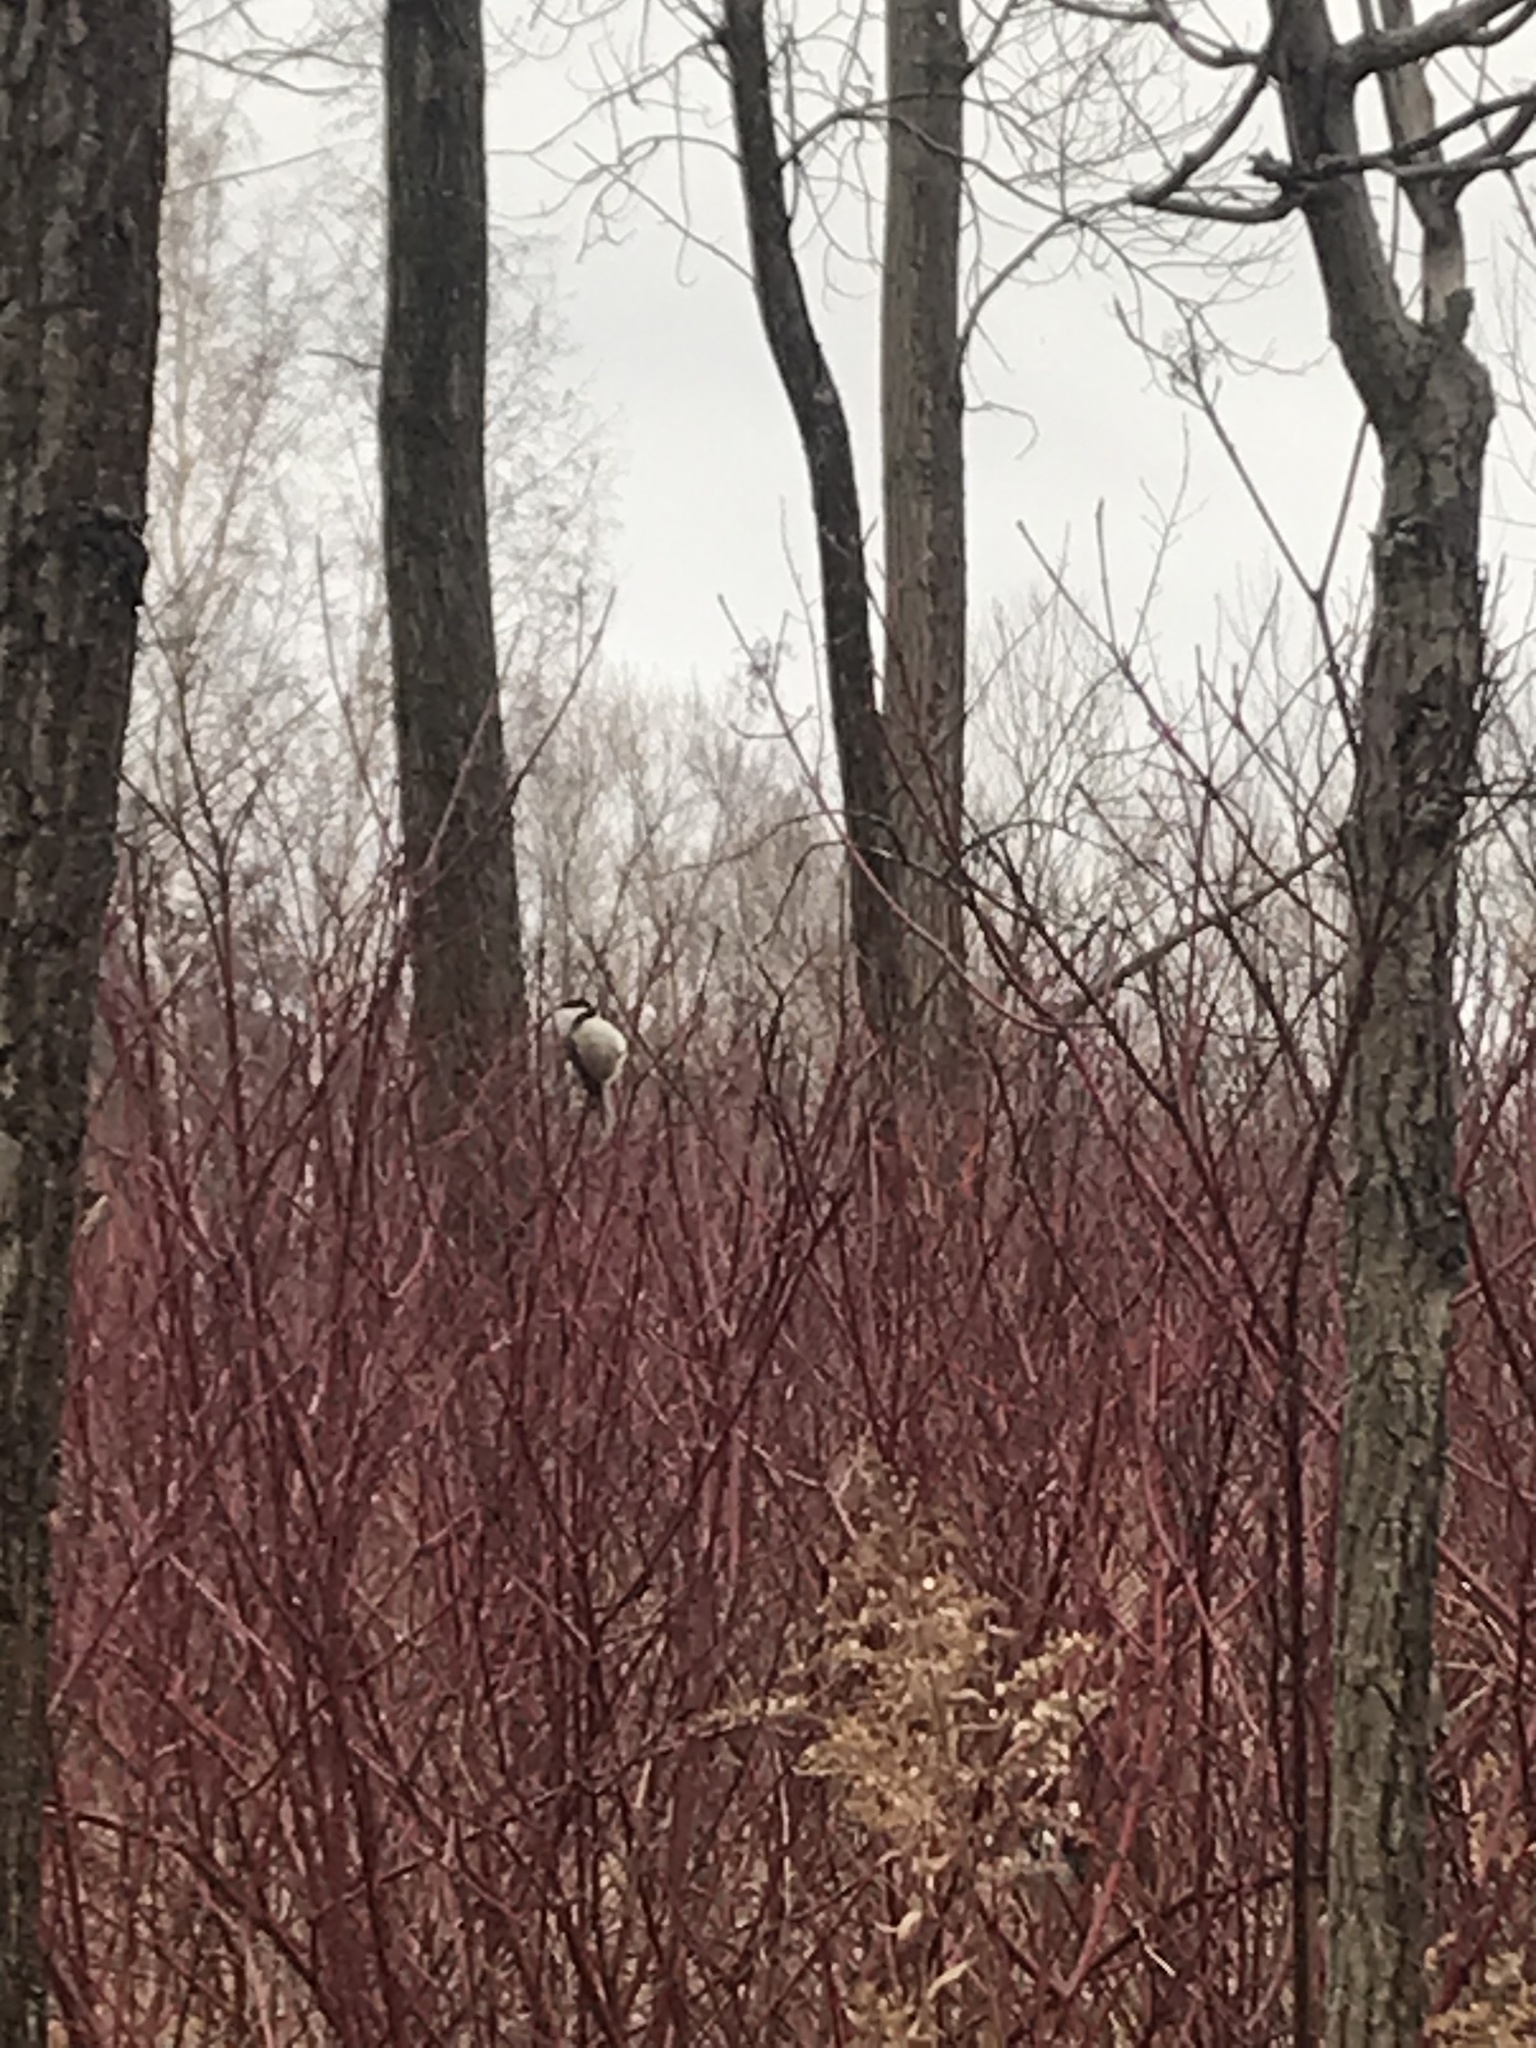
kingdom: Animalia
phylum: Chordata
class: Aves
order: Passeriformes
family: Paridae
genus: Poecile
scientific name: Poecile atricapillus
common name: Black-capped chickadee
